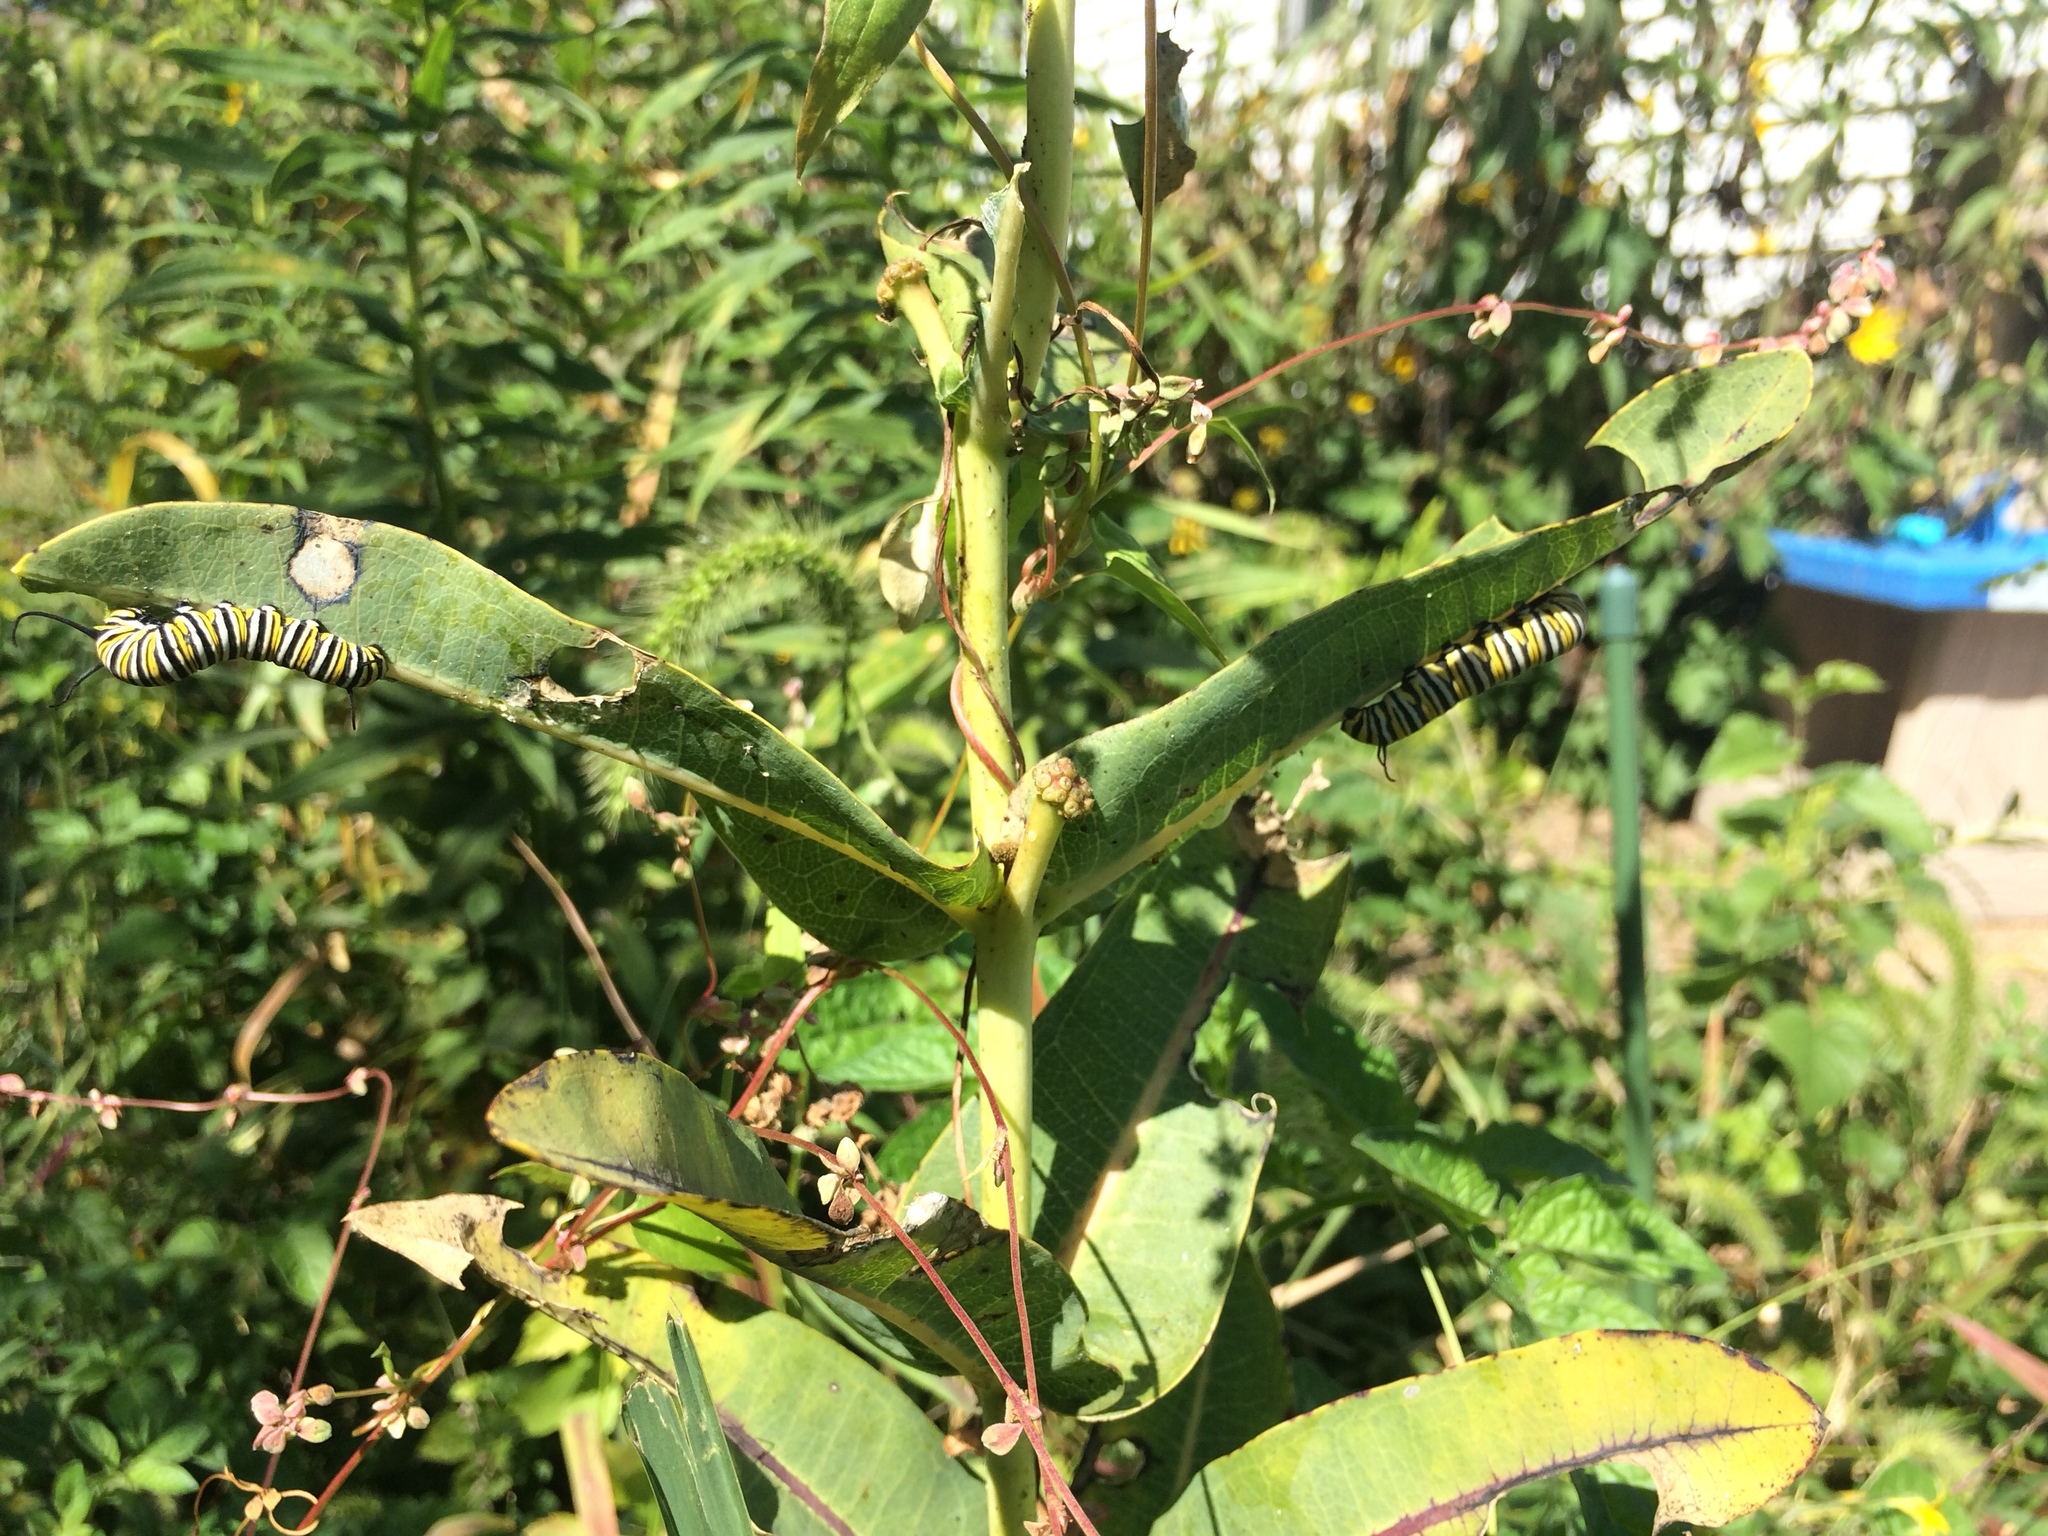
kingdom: Animalia
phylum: Arthropoda
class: Insecta
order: Lepidoptera
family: Nymphalidae
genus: Danaus
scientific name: Danaus plexippus
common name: Monarch
